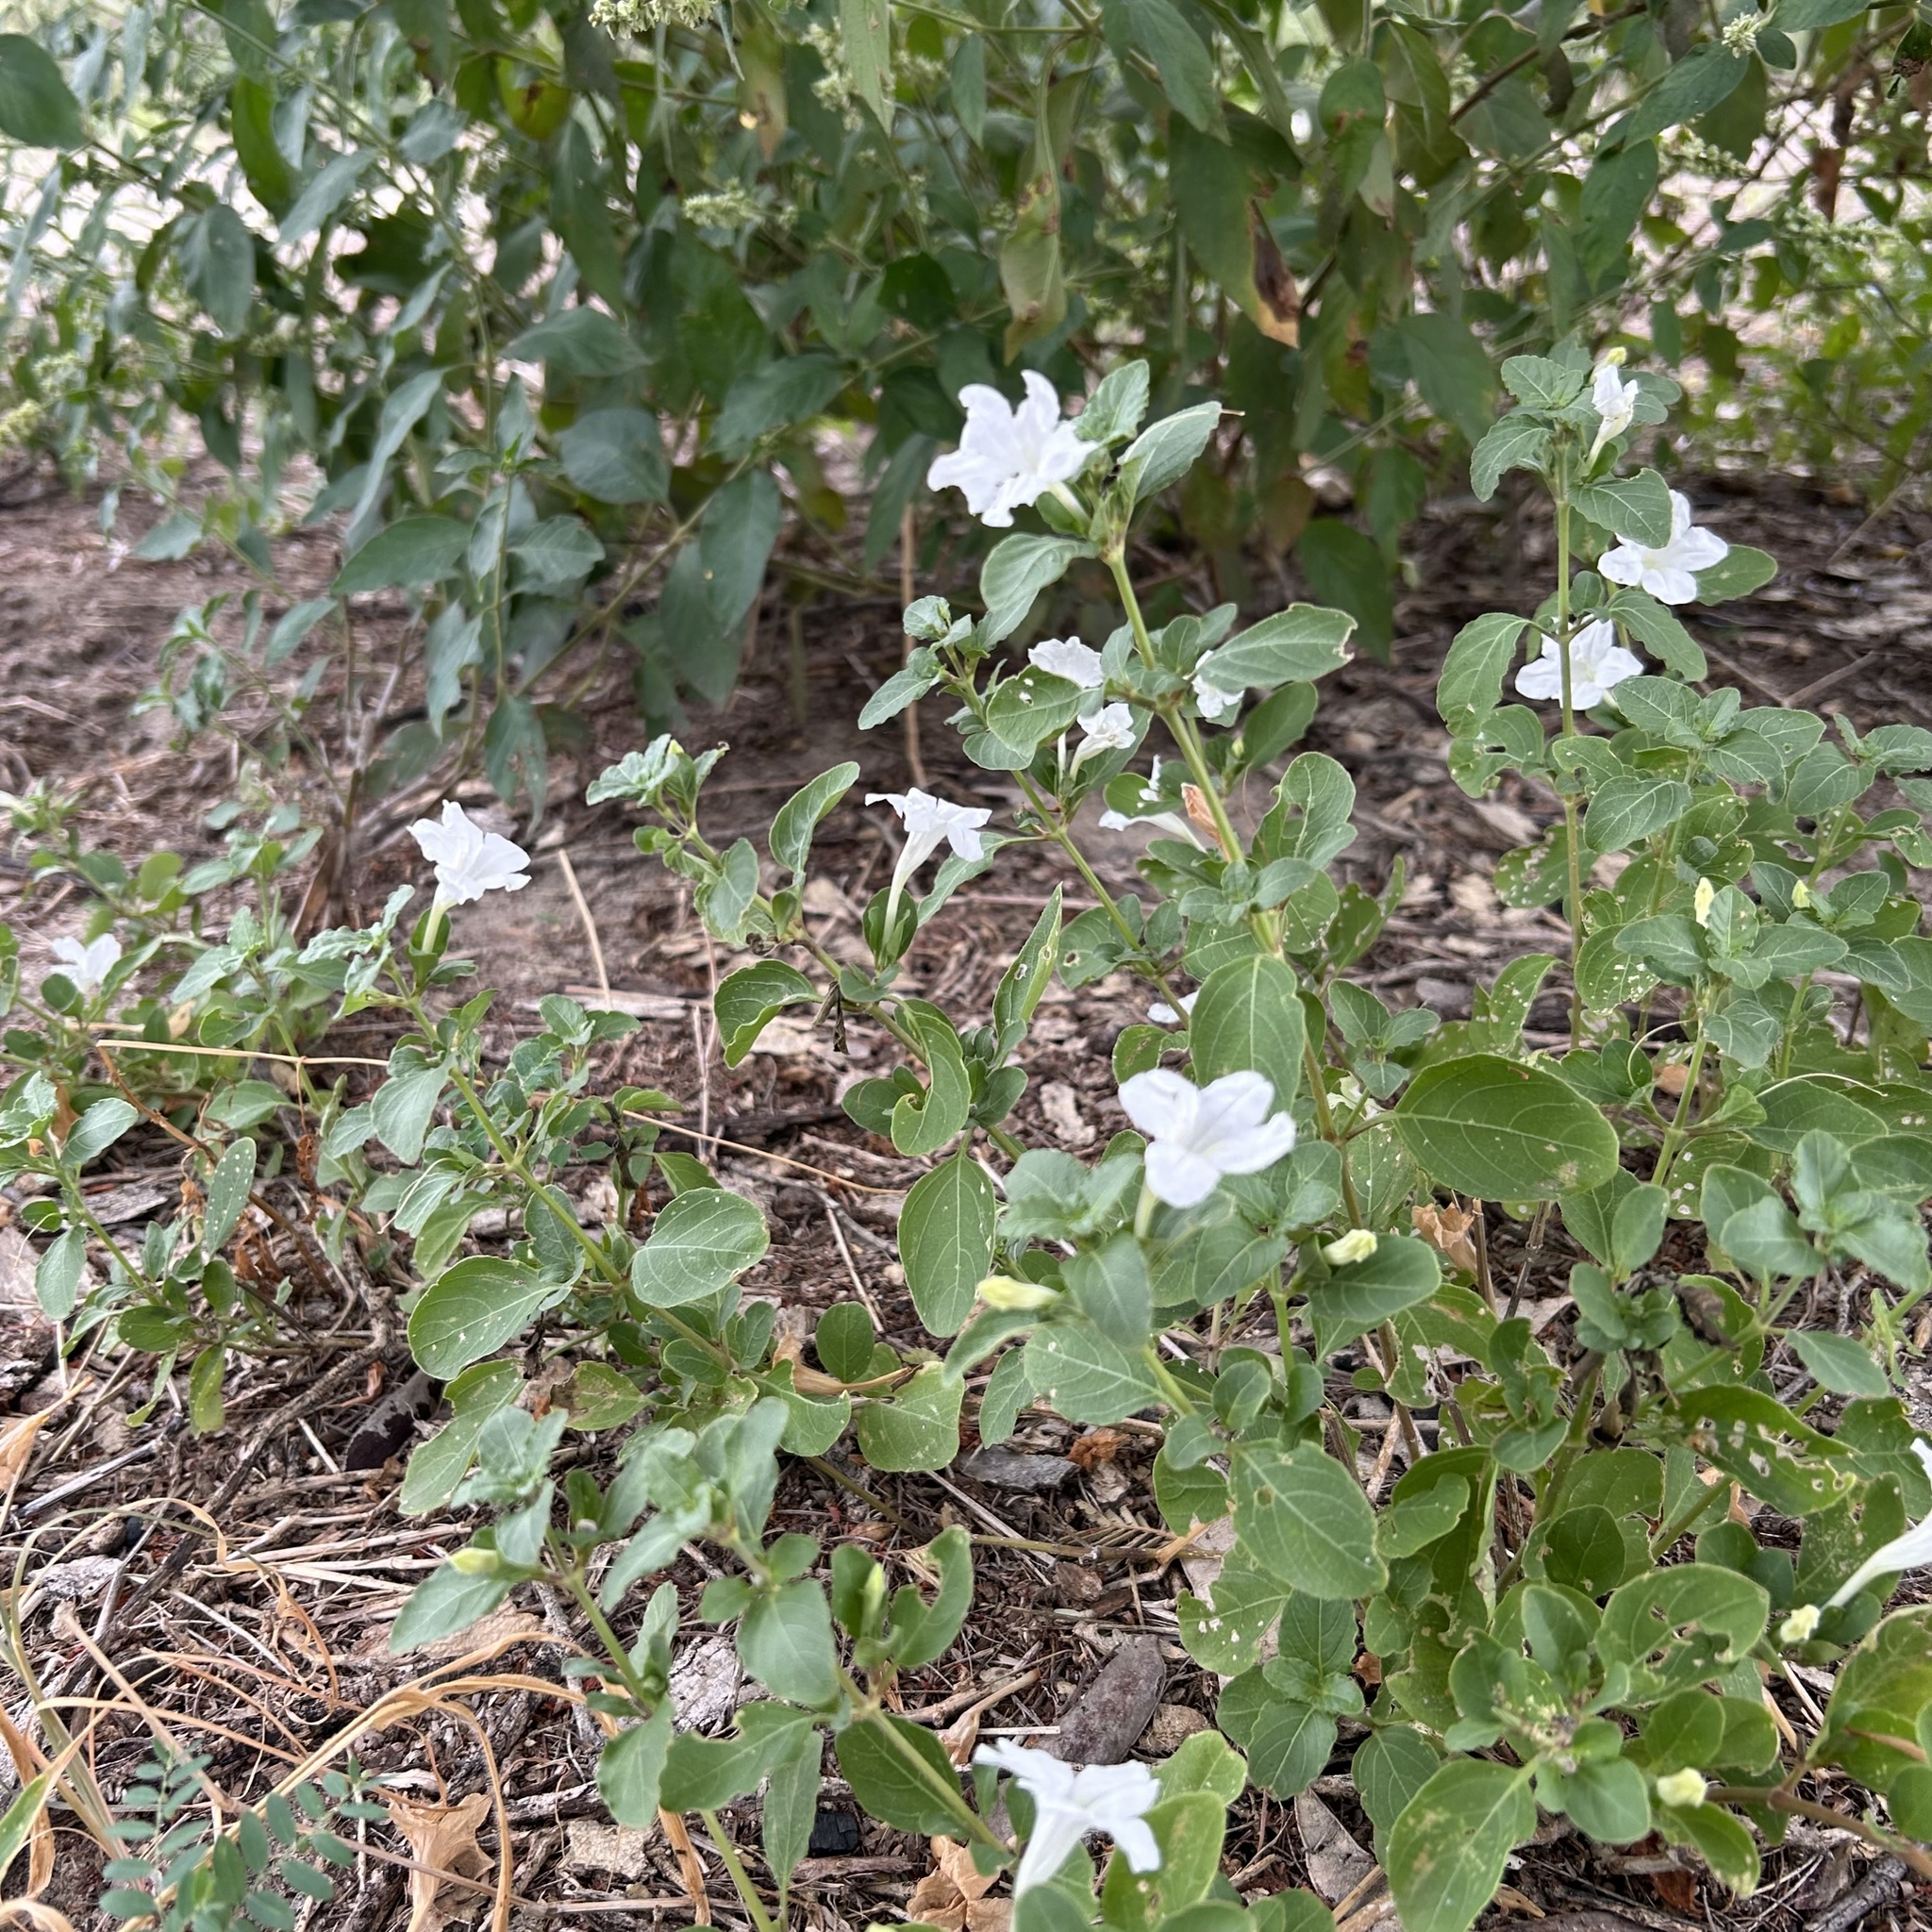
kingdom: Plantae
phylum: Tracheophyta
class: Magnoliopsida
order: Lamiales
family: Acanthaceae
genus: Ruellia
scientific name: Ruellia patula
